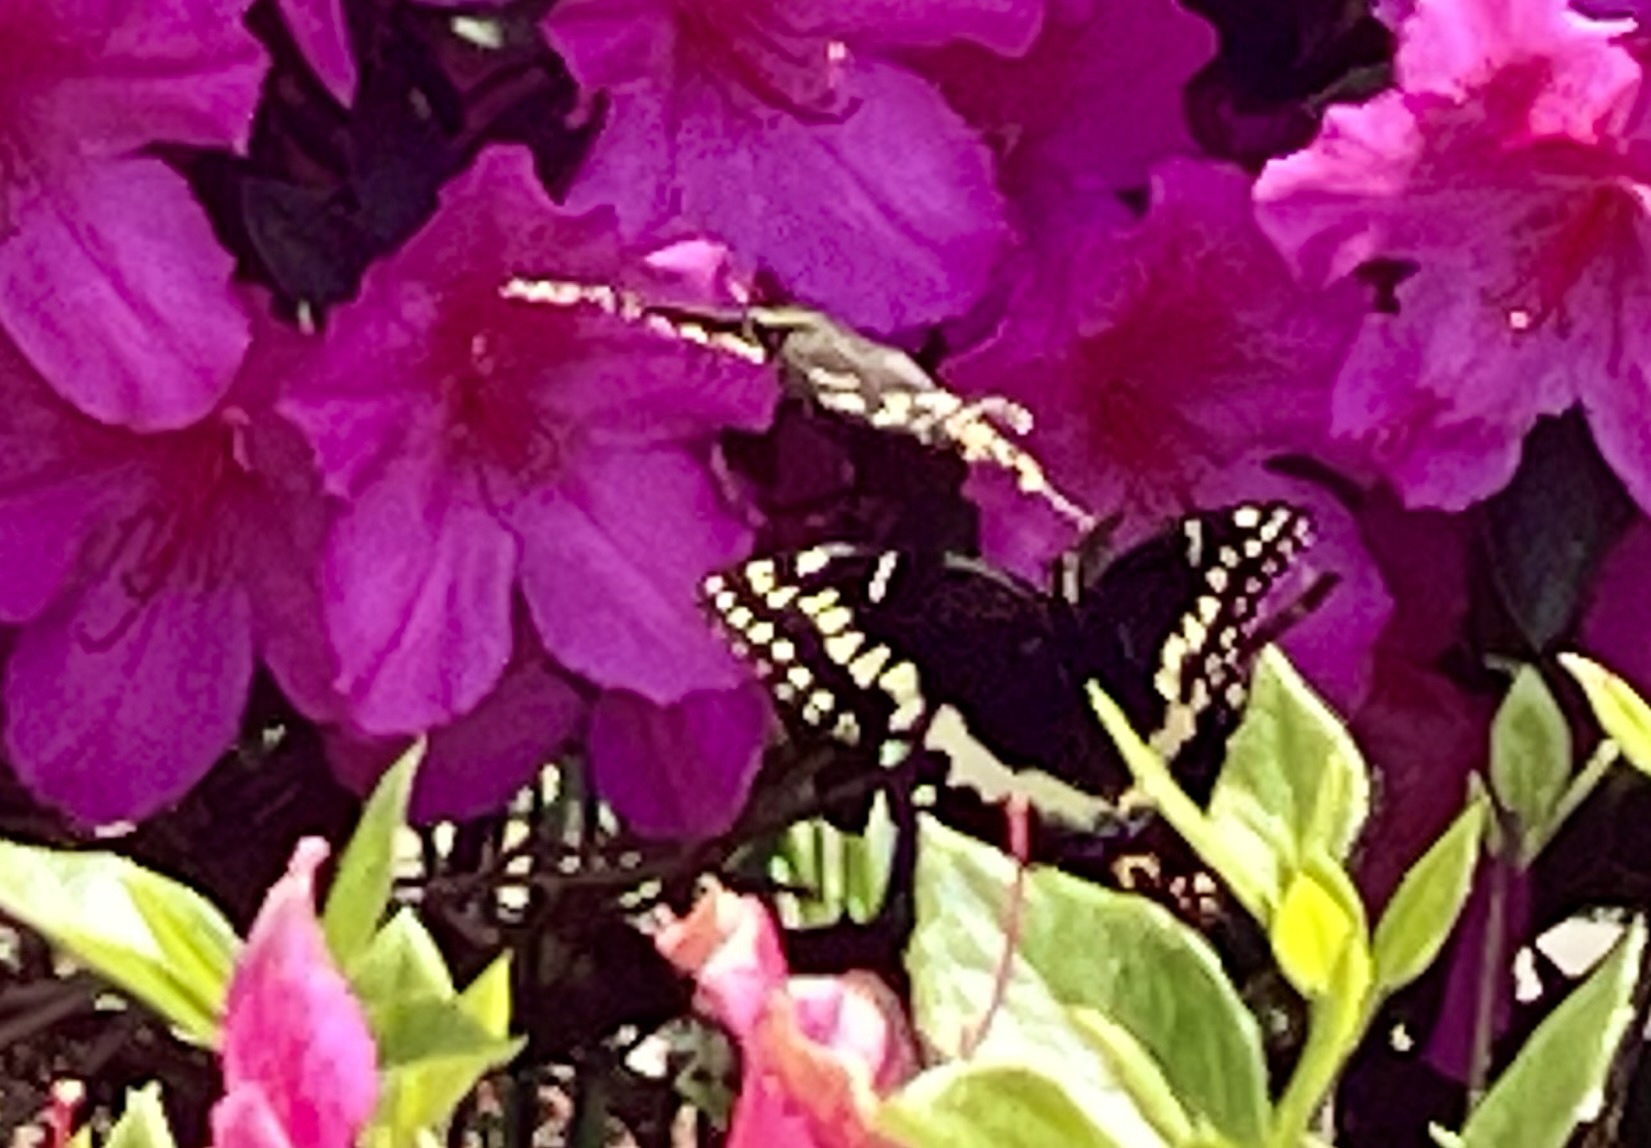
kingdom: Animalia
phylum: Arthropoda
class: Insecta
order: Lepidoptera
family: Papilionidae
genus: Papilio
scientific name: Papilio palamedes
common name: Palamedes swallowtail
